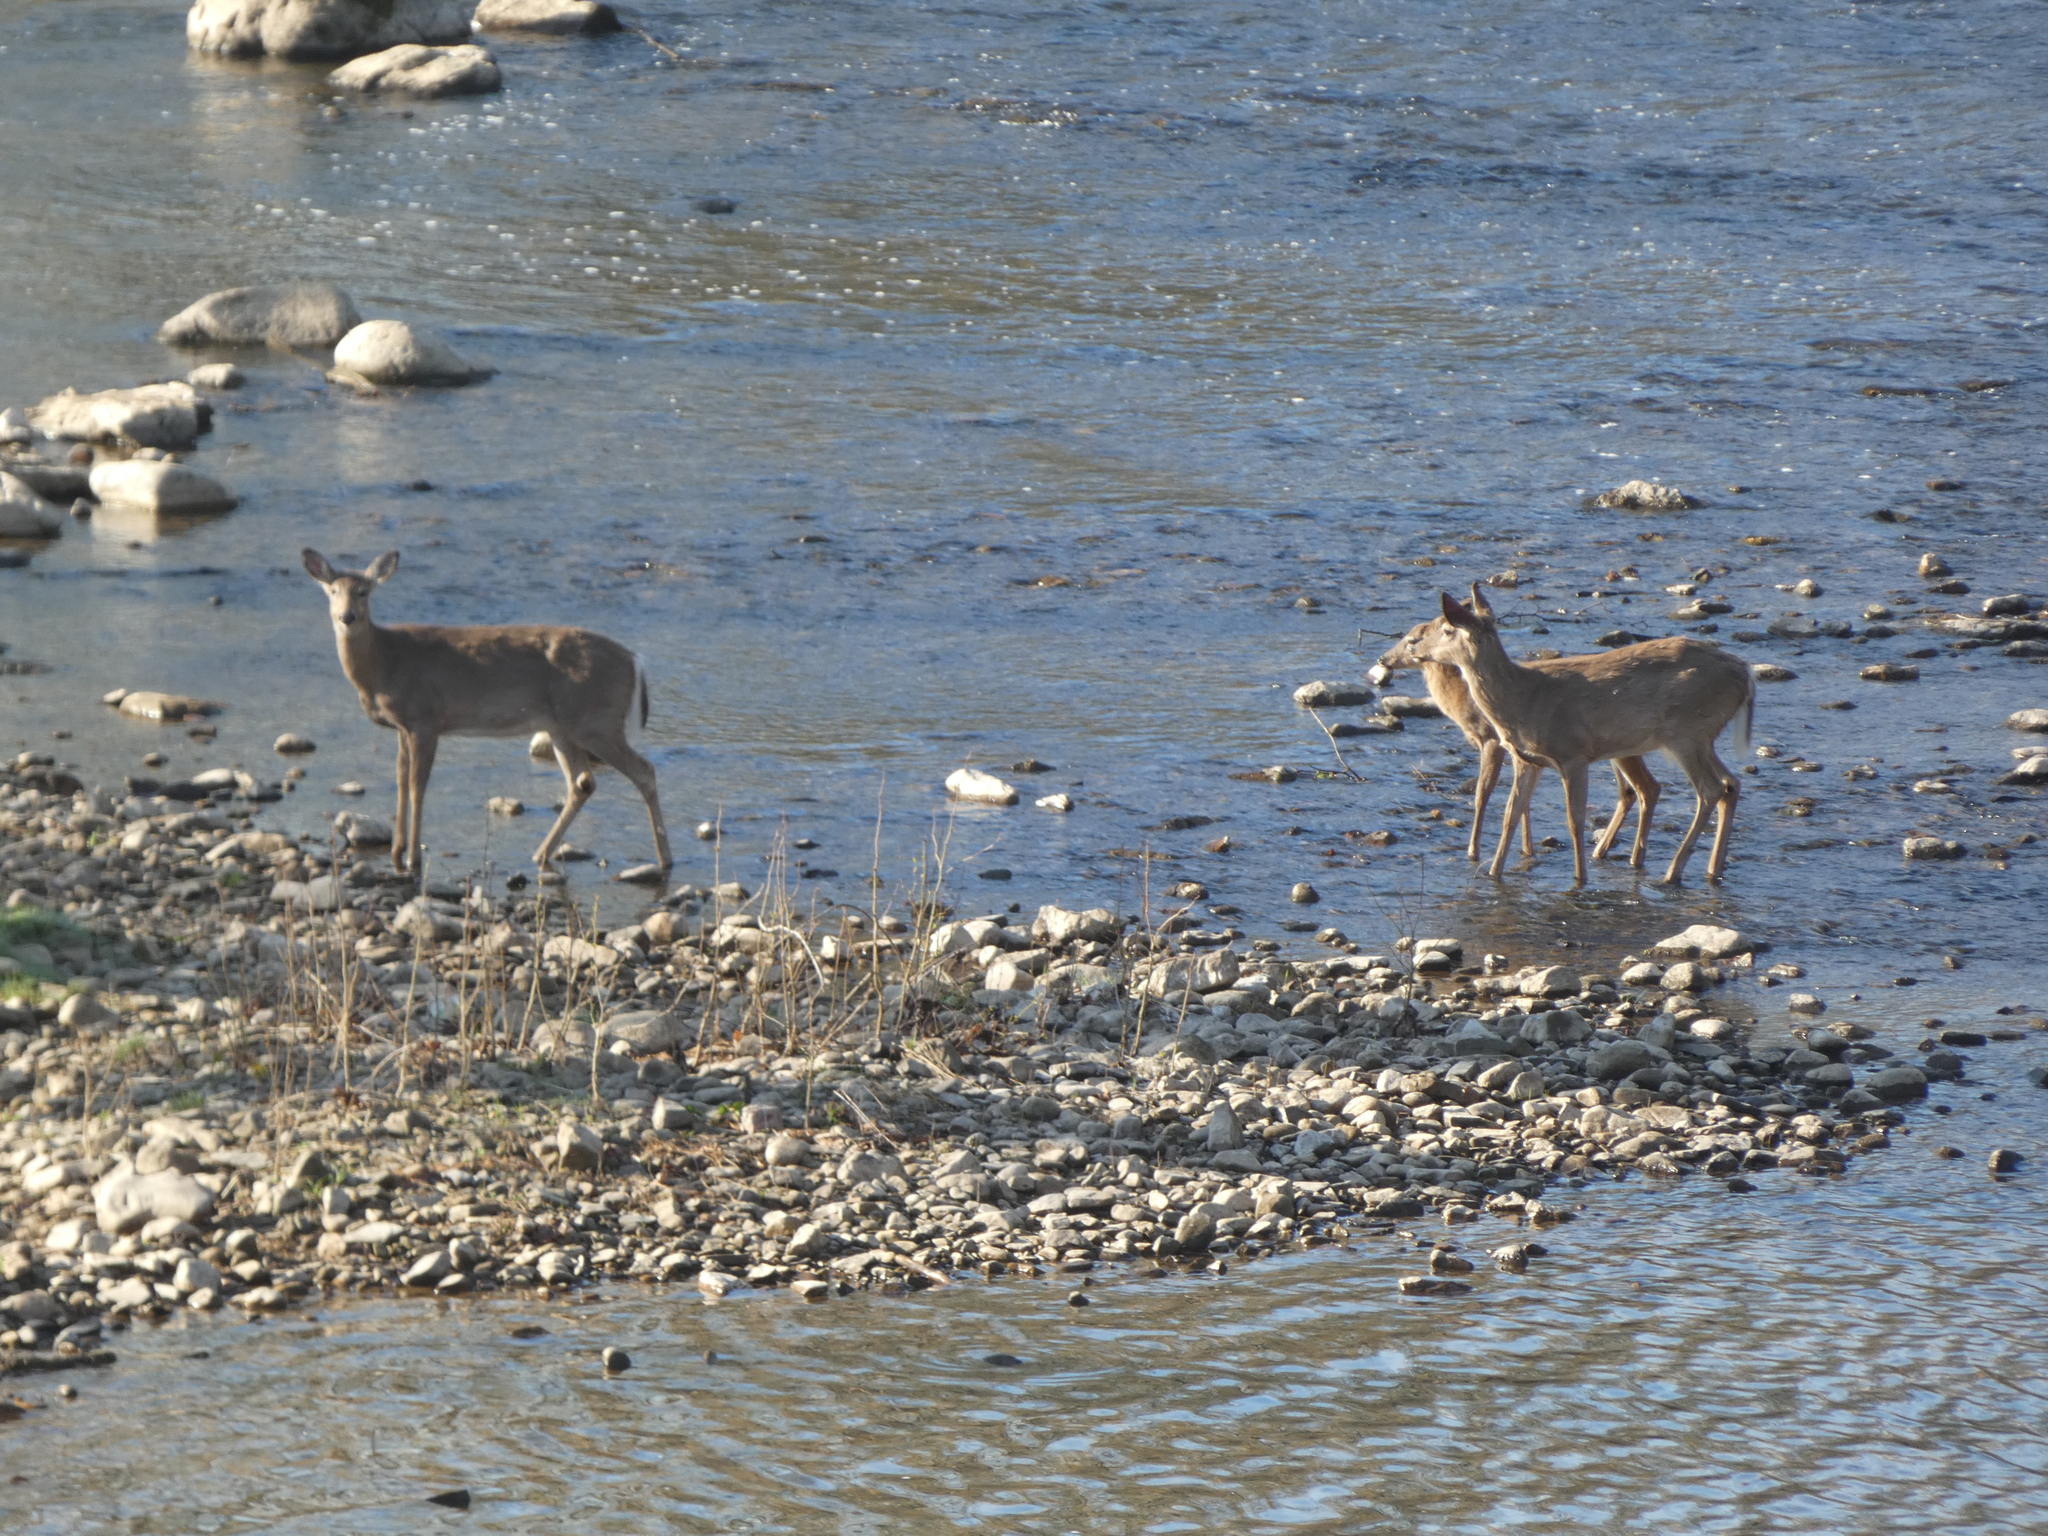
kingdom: Animalia
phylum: Chordata
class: Mammalia
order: Artiodactyla
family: Cervidae
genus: Odocoileus
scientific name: Odocoileus virginianus
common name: White-tailed deer
